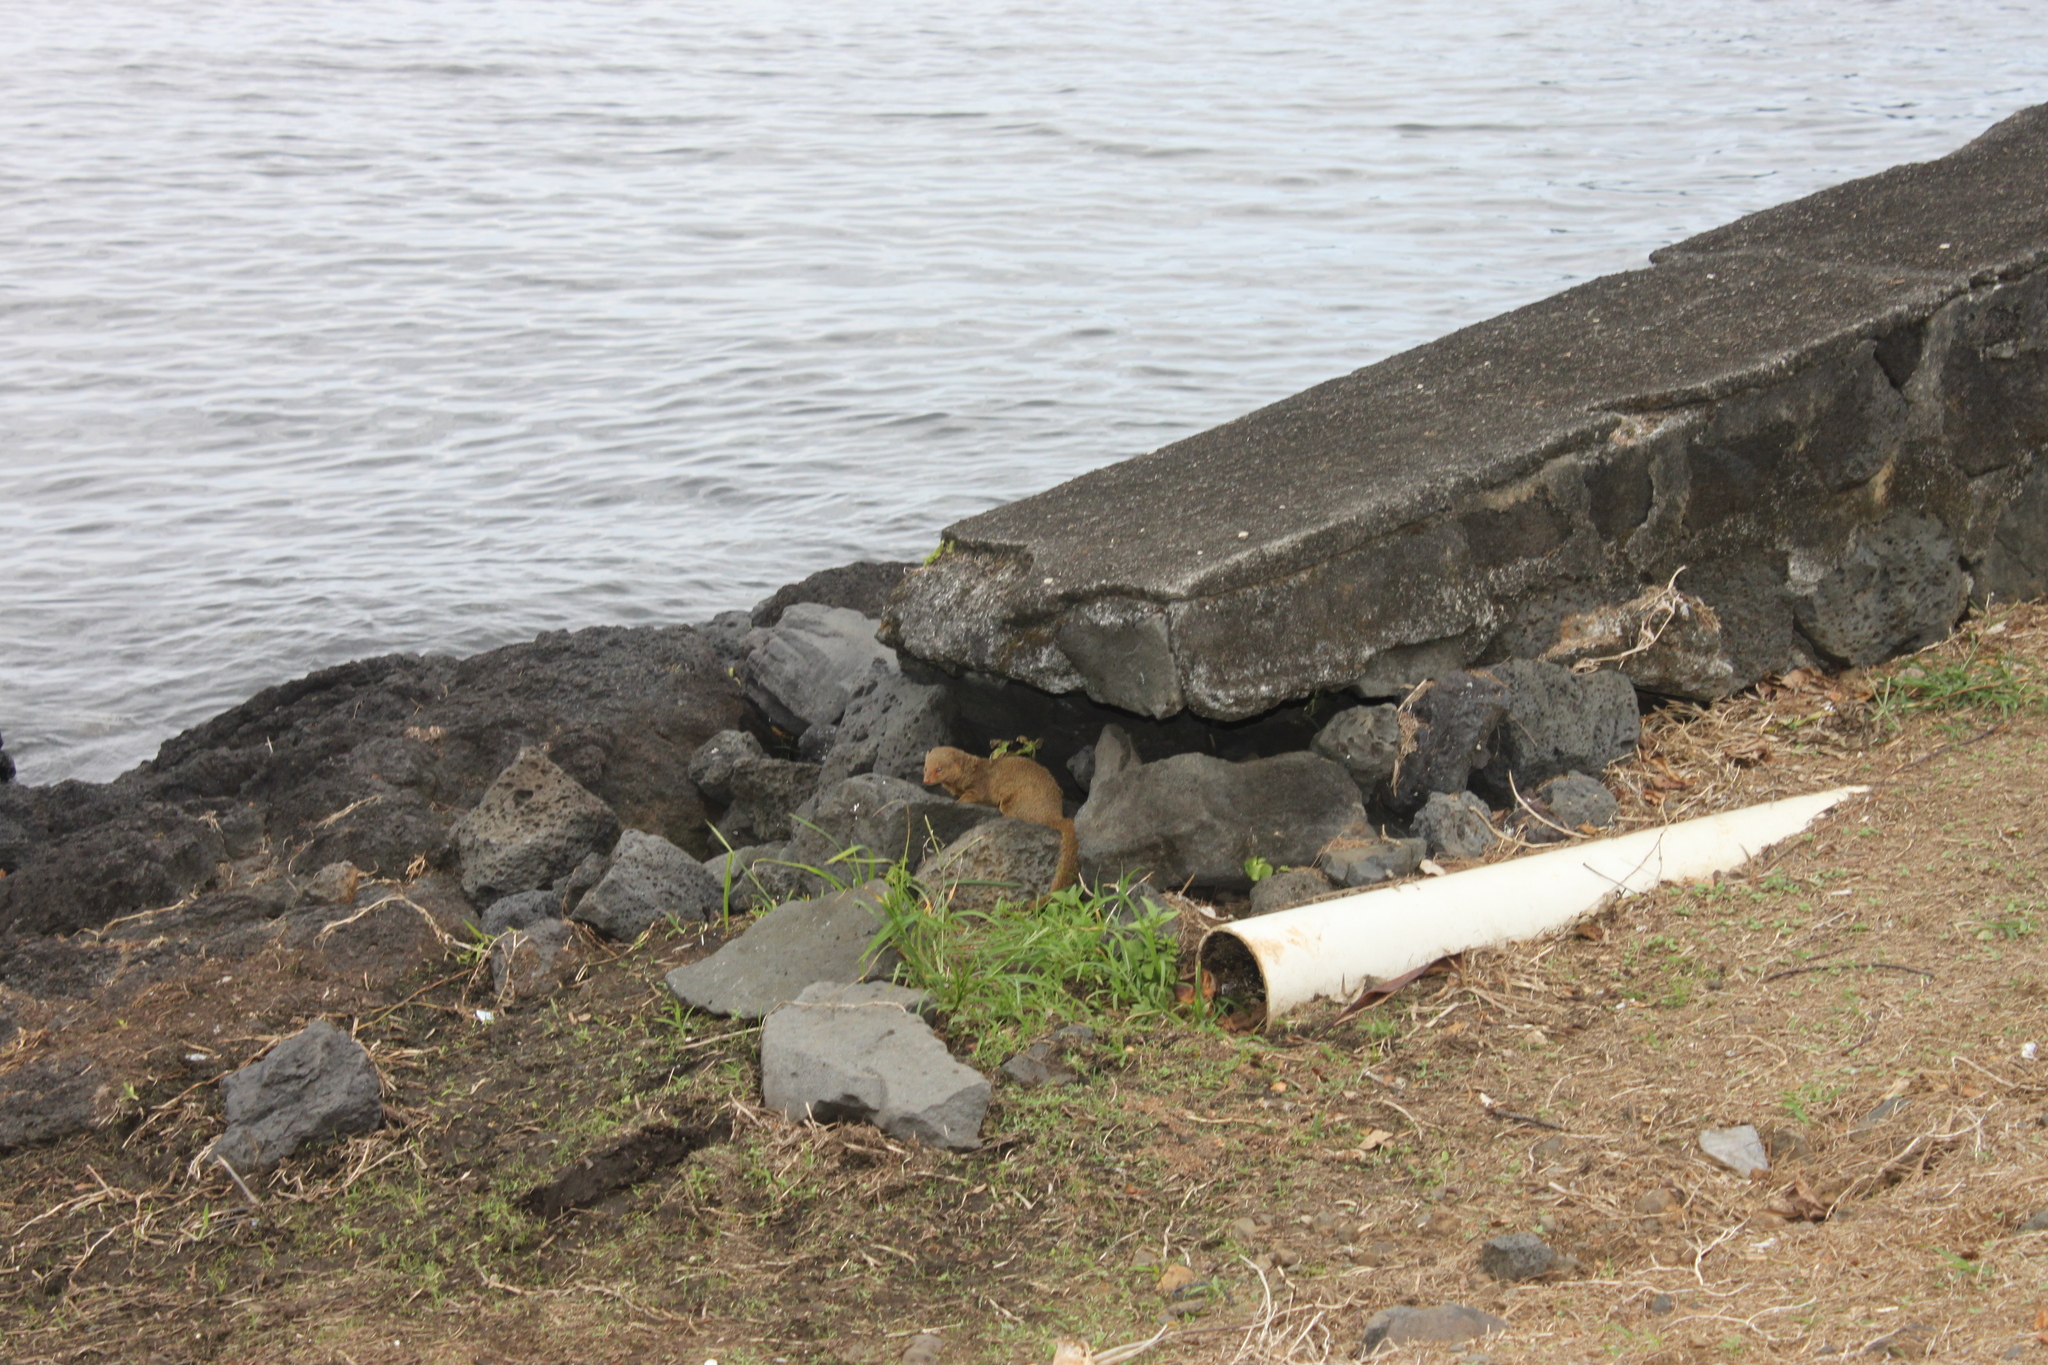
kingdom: Animalia
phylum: Chordata
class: Mammalia
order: Carnivora
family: Herpestidae
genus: Herpestes
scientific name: Herpestes javanicus
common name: Small asian mongoose
